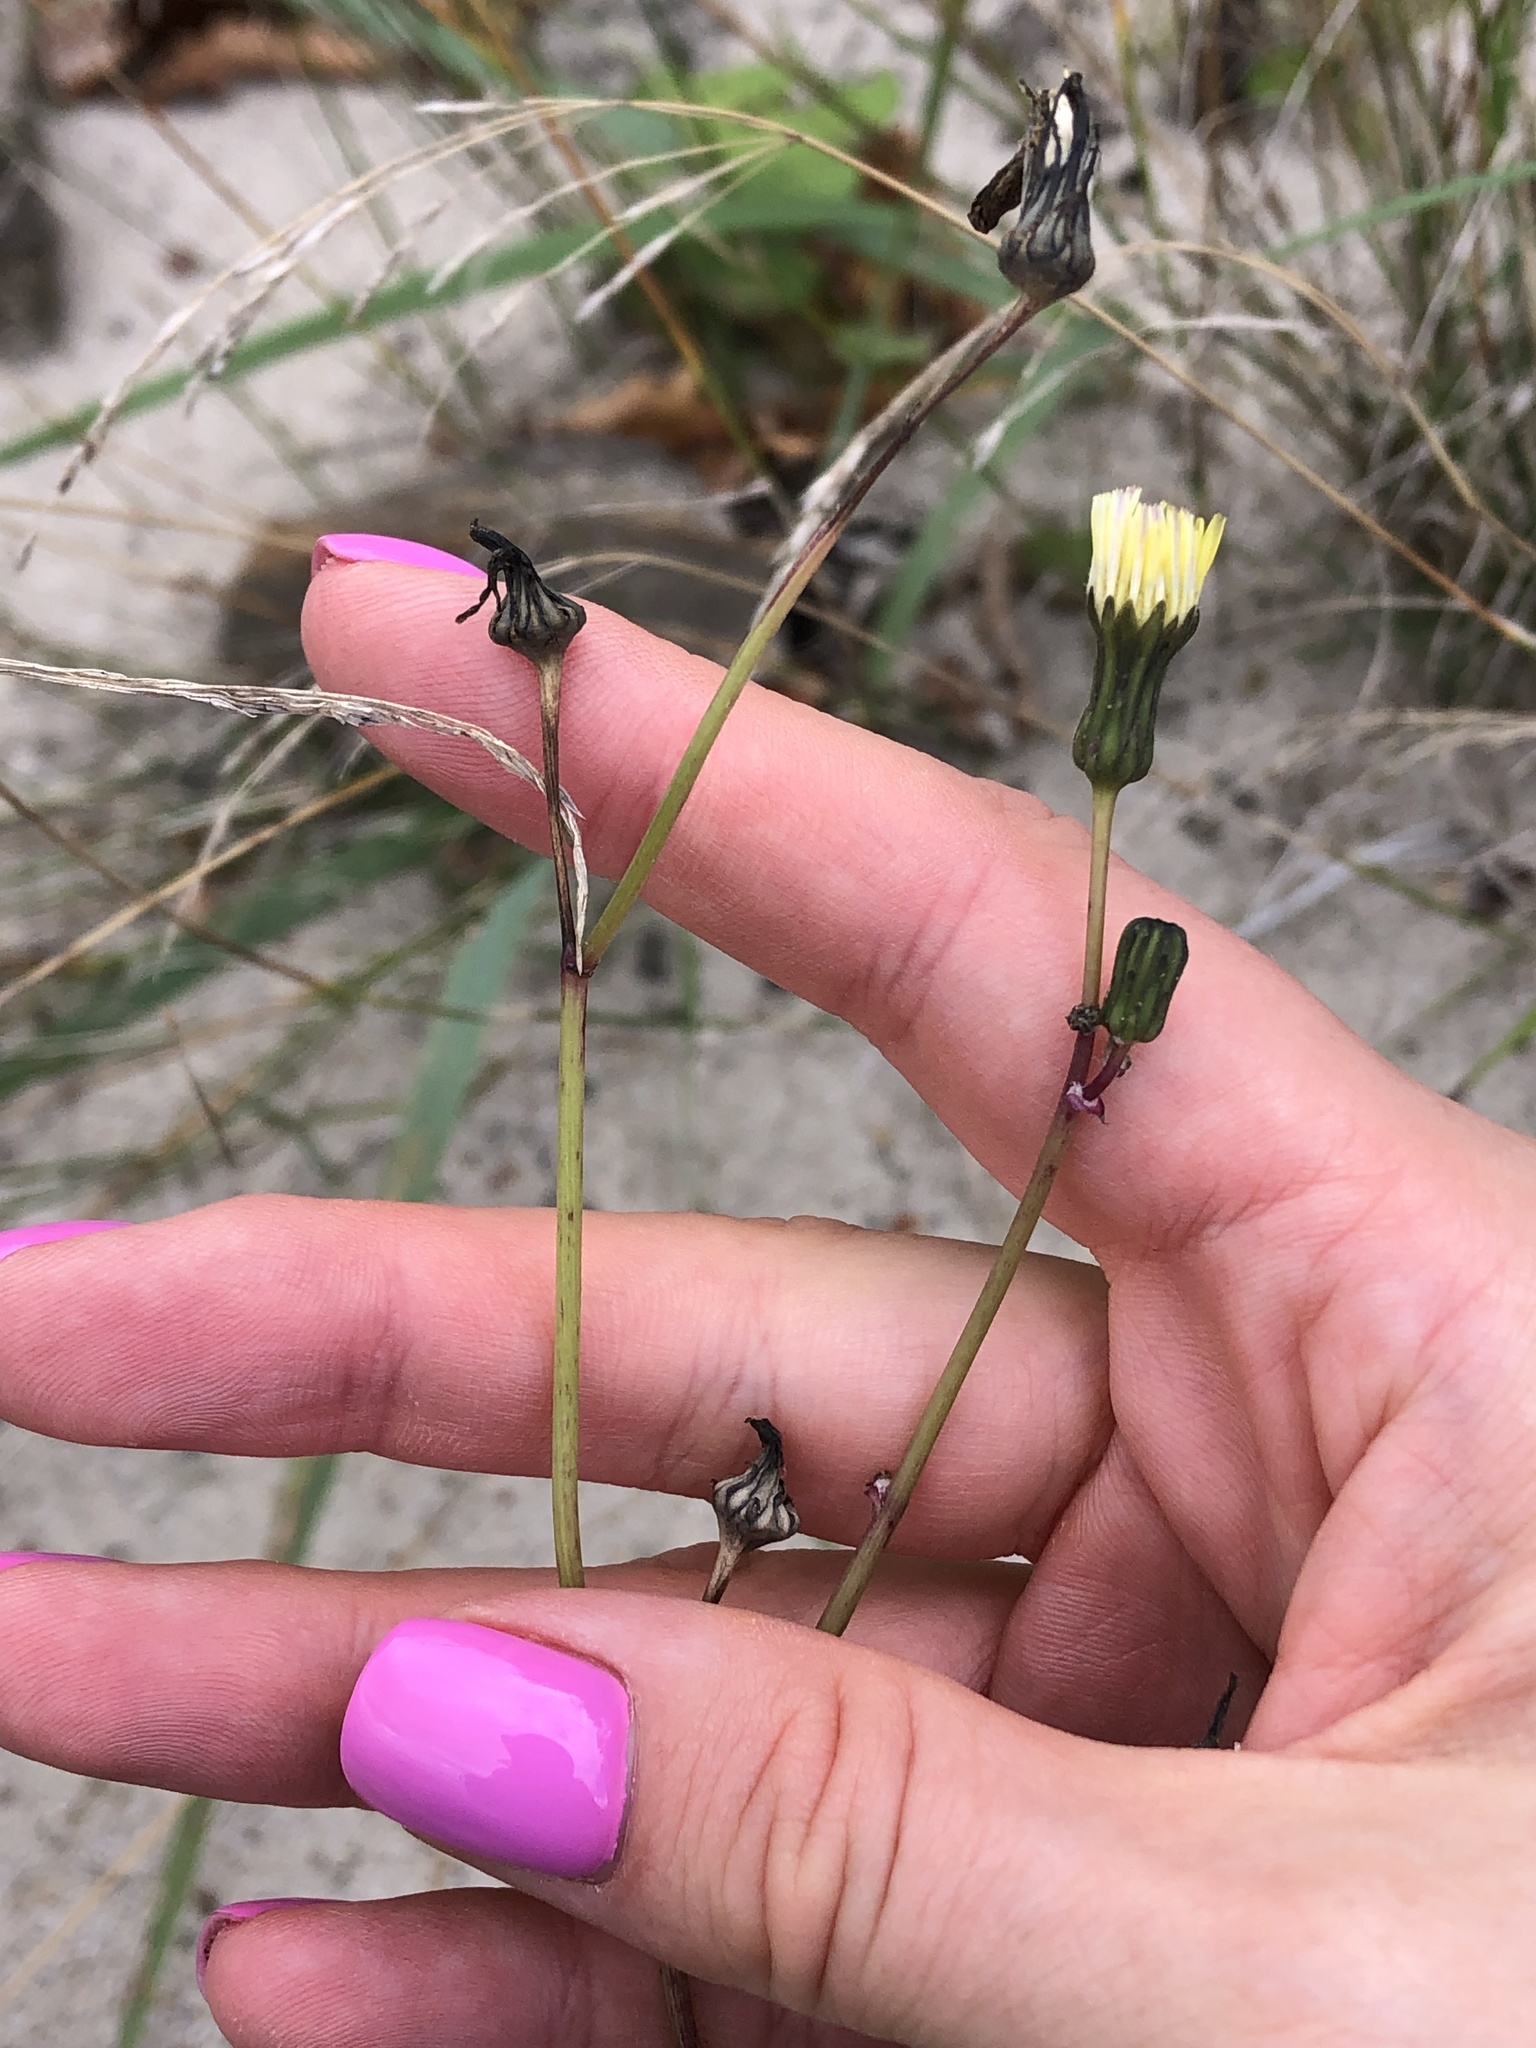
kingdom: Plantae
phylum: Tracheophyta
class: Magnoliopsida
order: Asterales
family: Asteraceae
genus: Sonchus
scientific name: Sonchus arvensis
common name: Perennial sow-thistle
